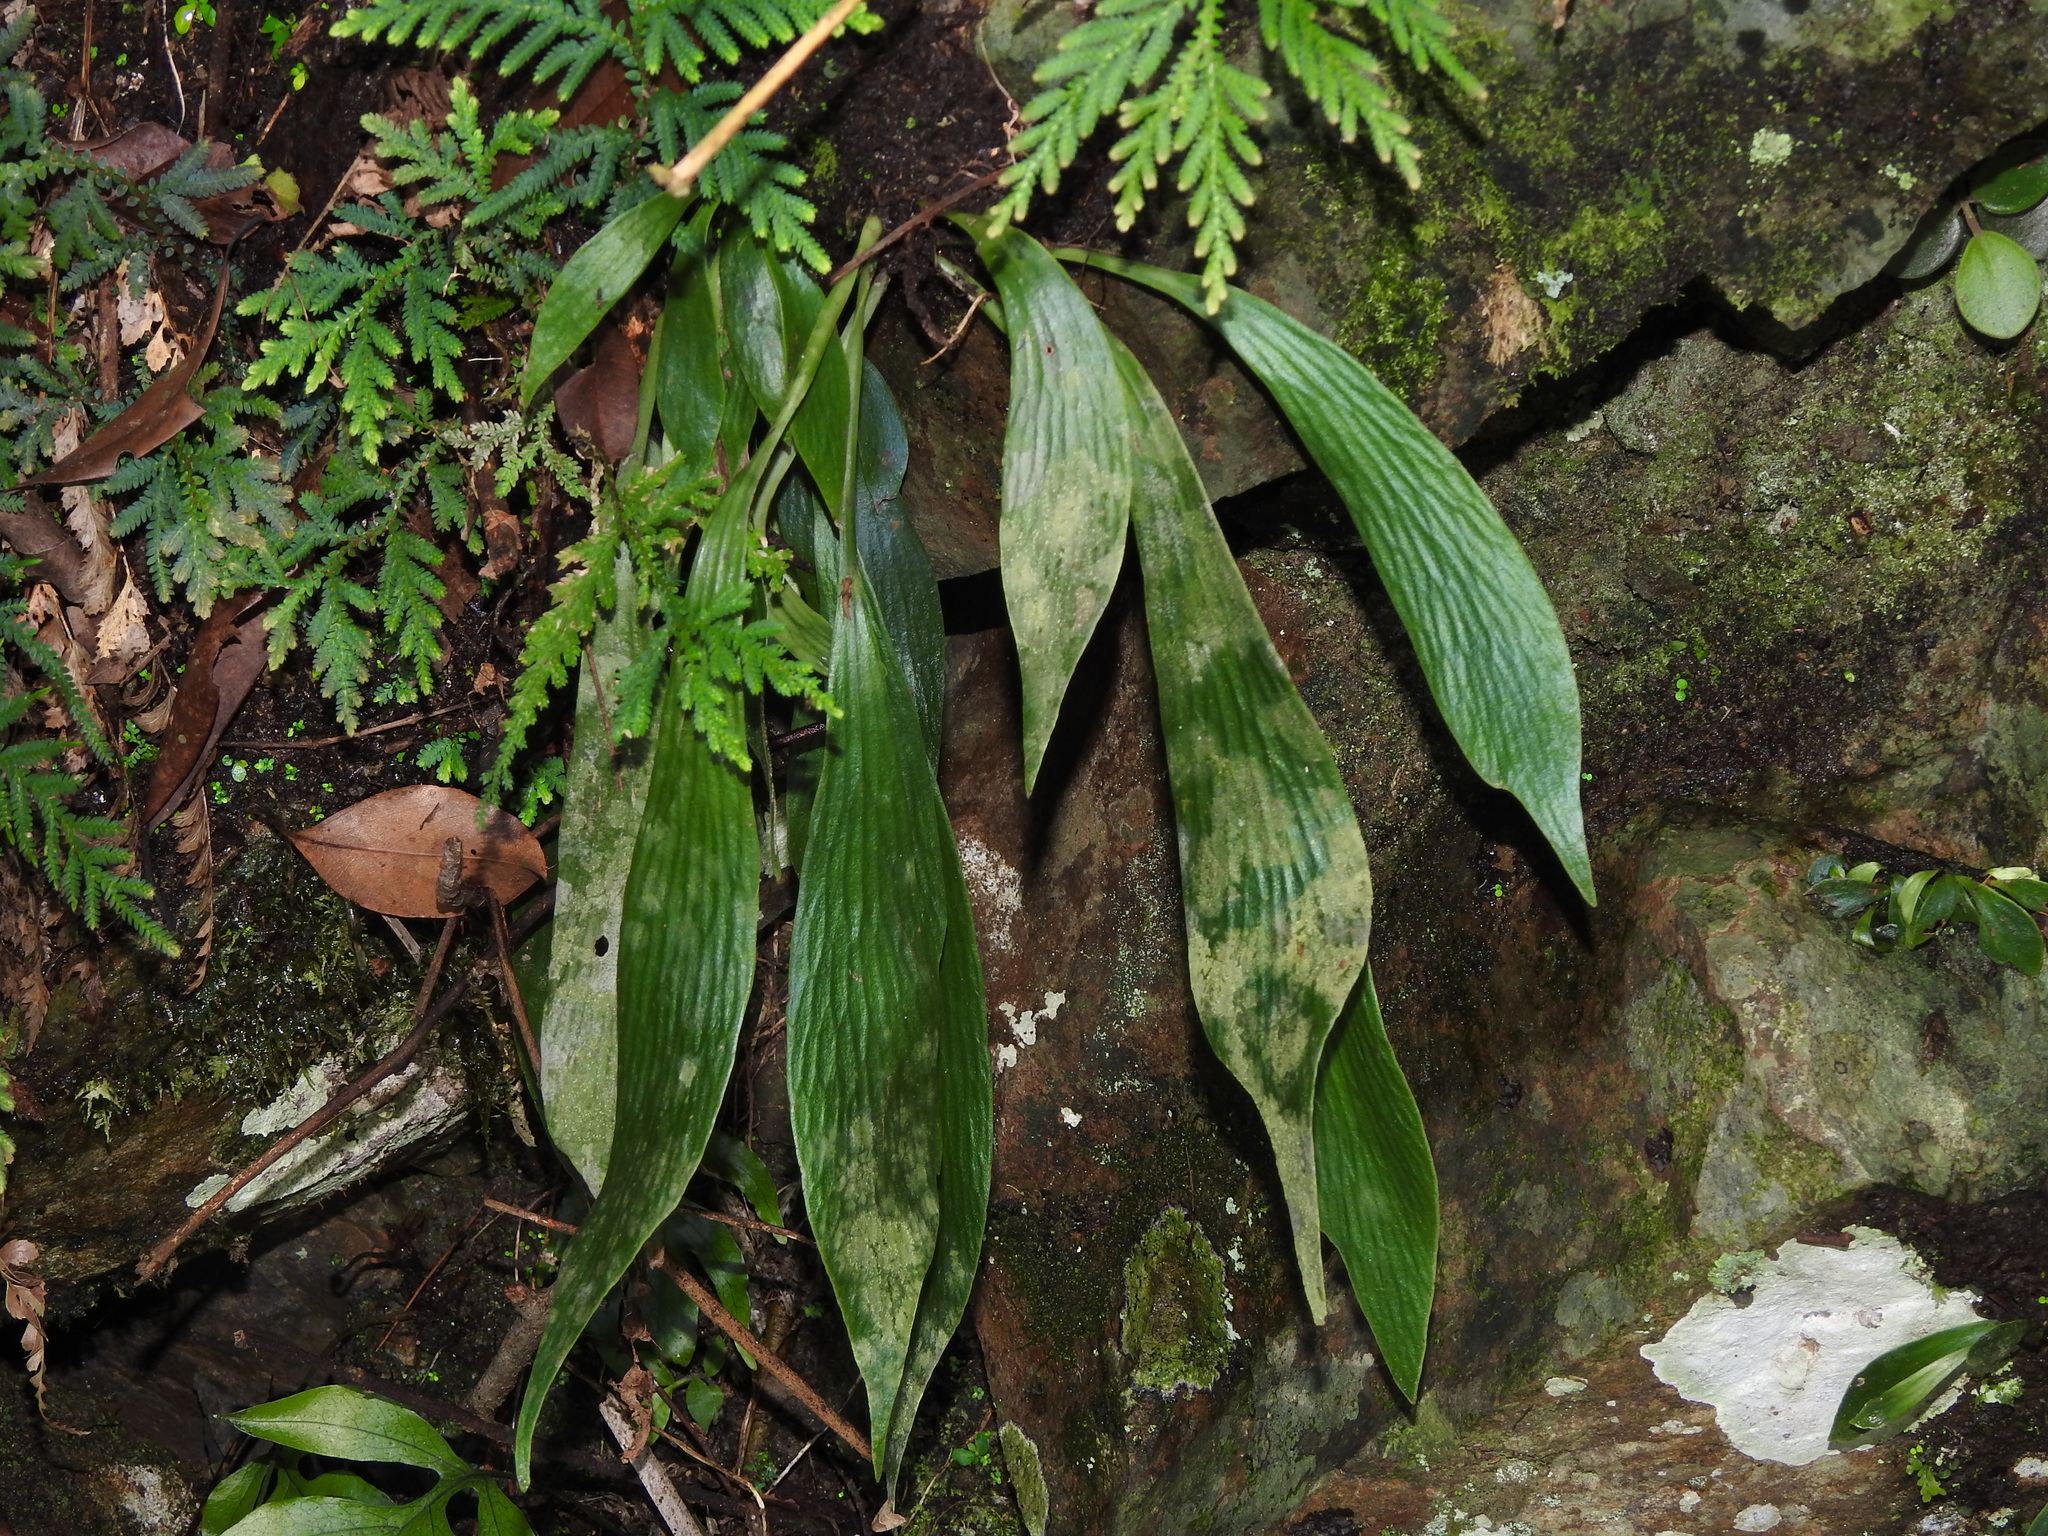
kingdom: Plantae
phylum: Tracheophyta
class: Polypodiopsida
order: Polypodiales
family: Pteridaceae
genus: Antrophyum
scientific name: Antrophyum formosanum
